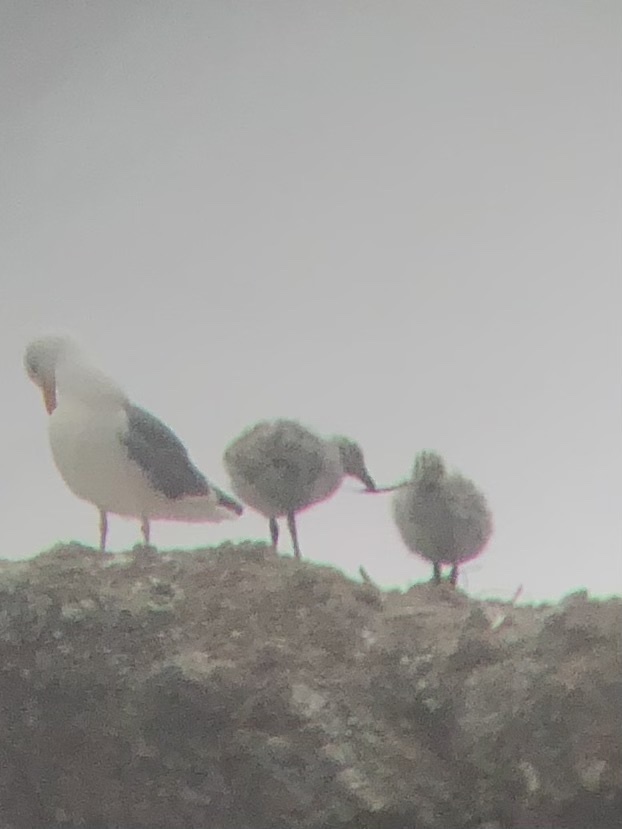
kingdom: Animalia
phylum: Chordata
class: Aves
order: Charadriiformes
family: Laridae
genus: Larus
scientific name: Larus occidentalis
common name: Western gull
